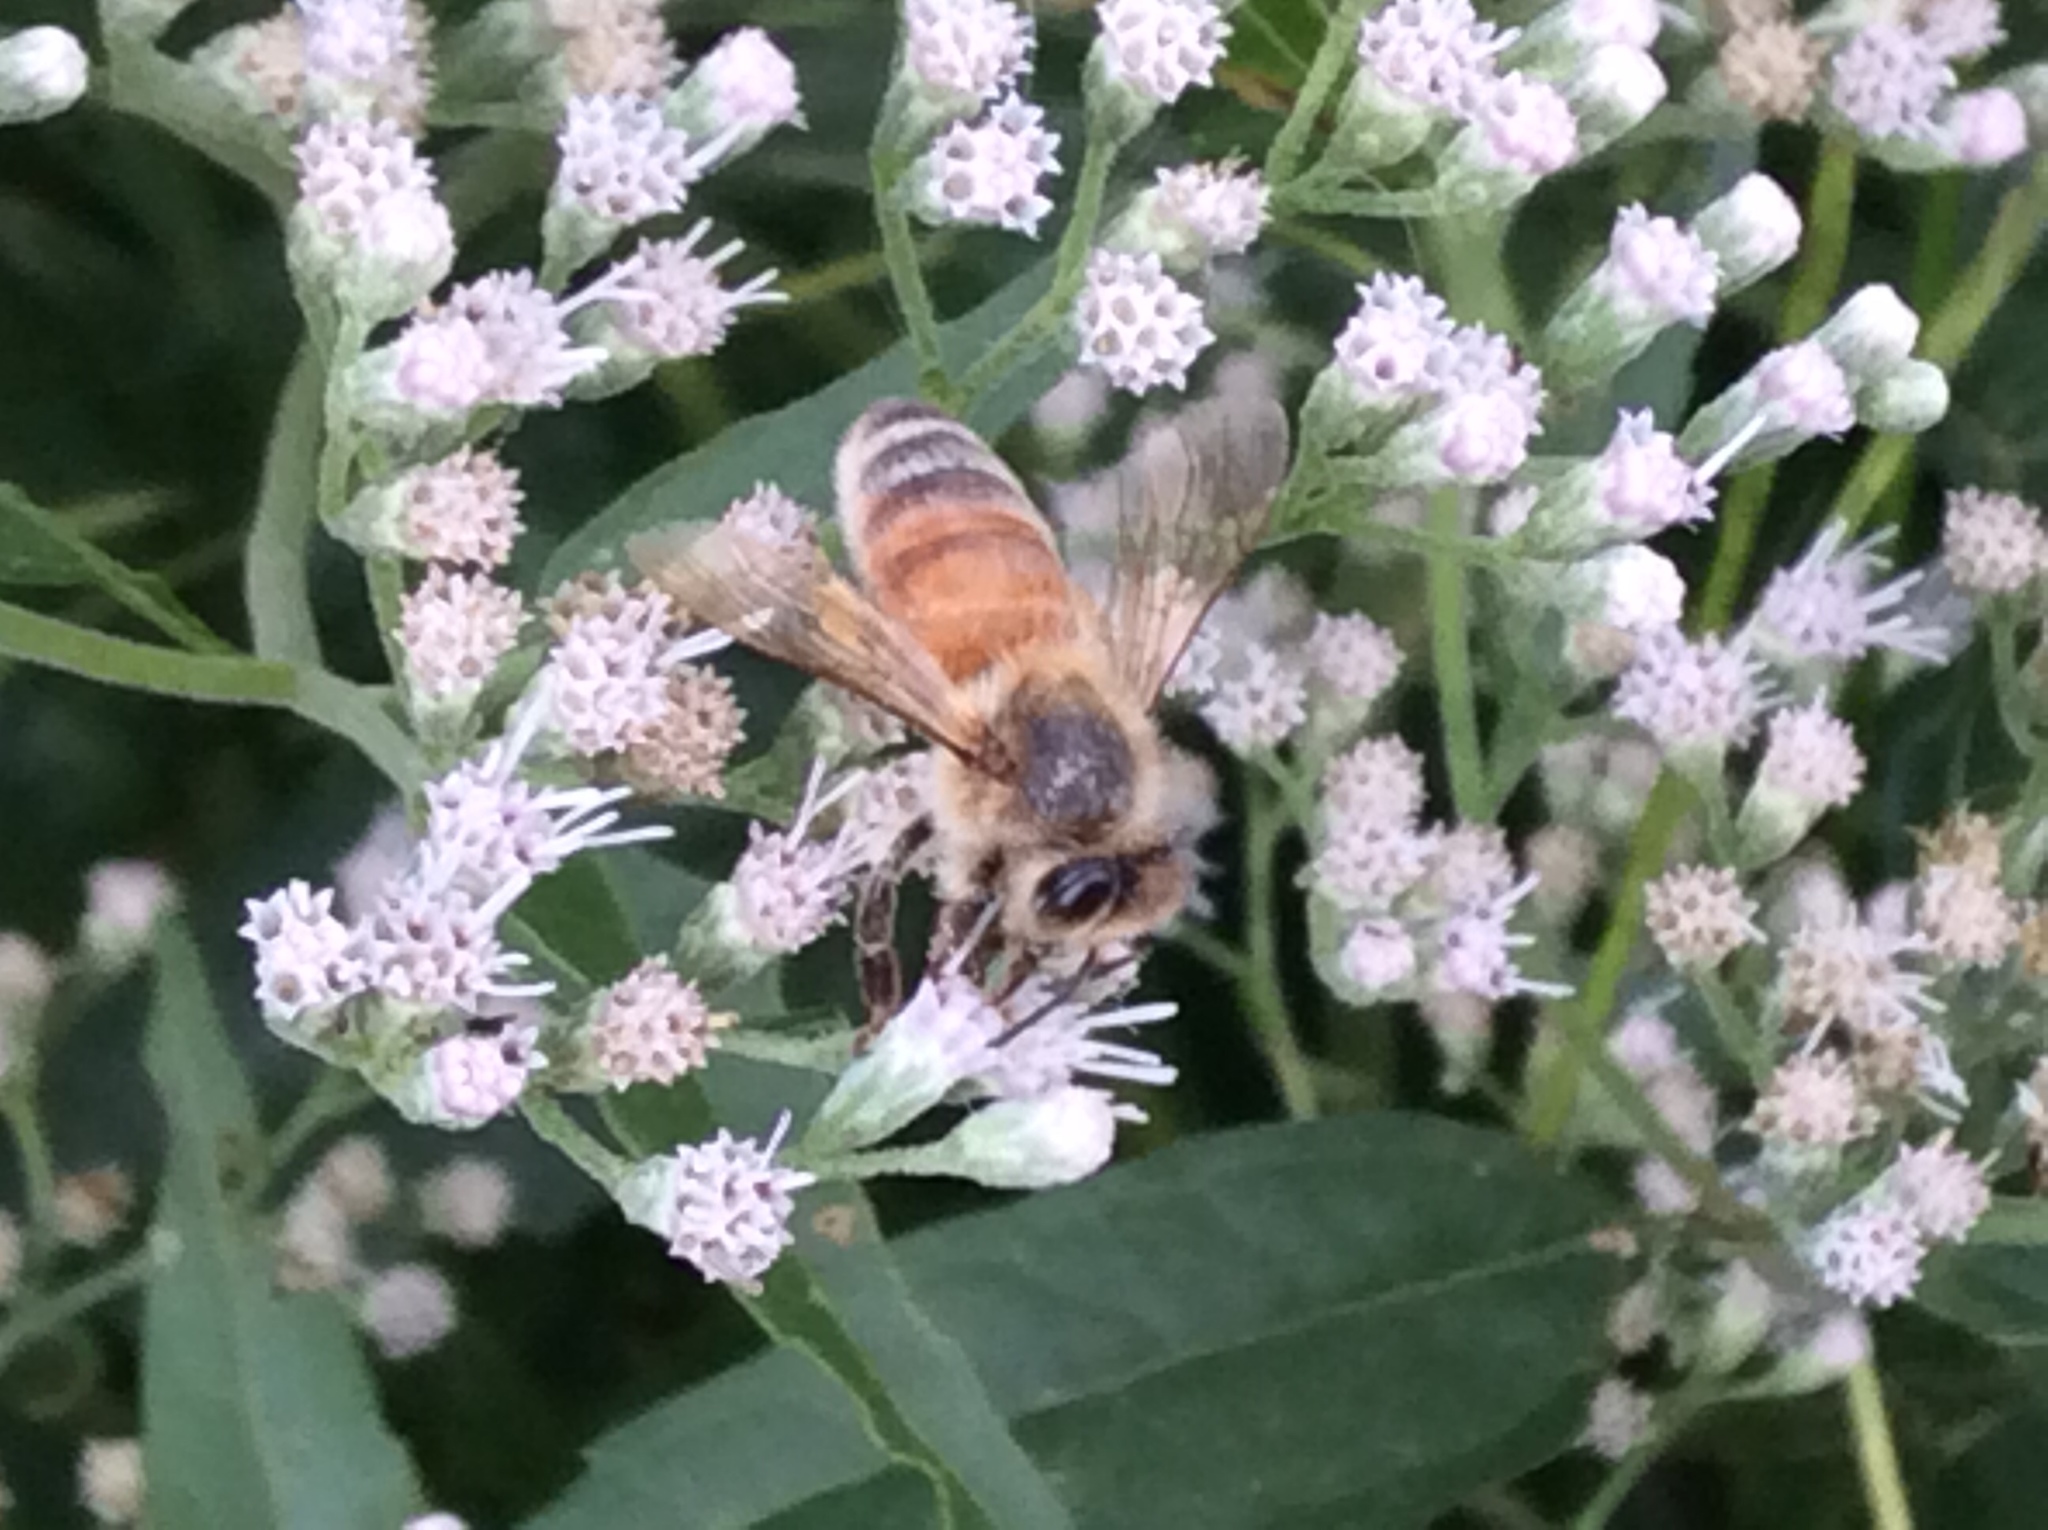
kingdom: Animalia
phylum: Arthropoda
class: Insecta
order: Hymenoptera
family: Apidae
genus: Apis
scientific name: Apis mellifera
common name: Honey bee
